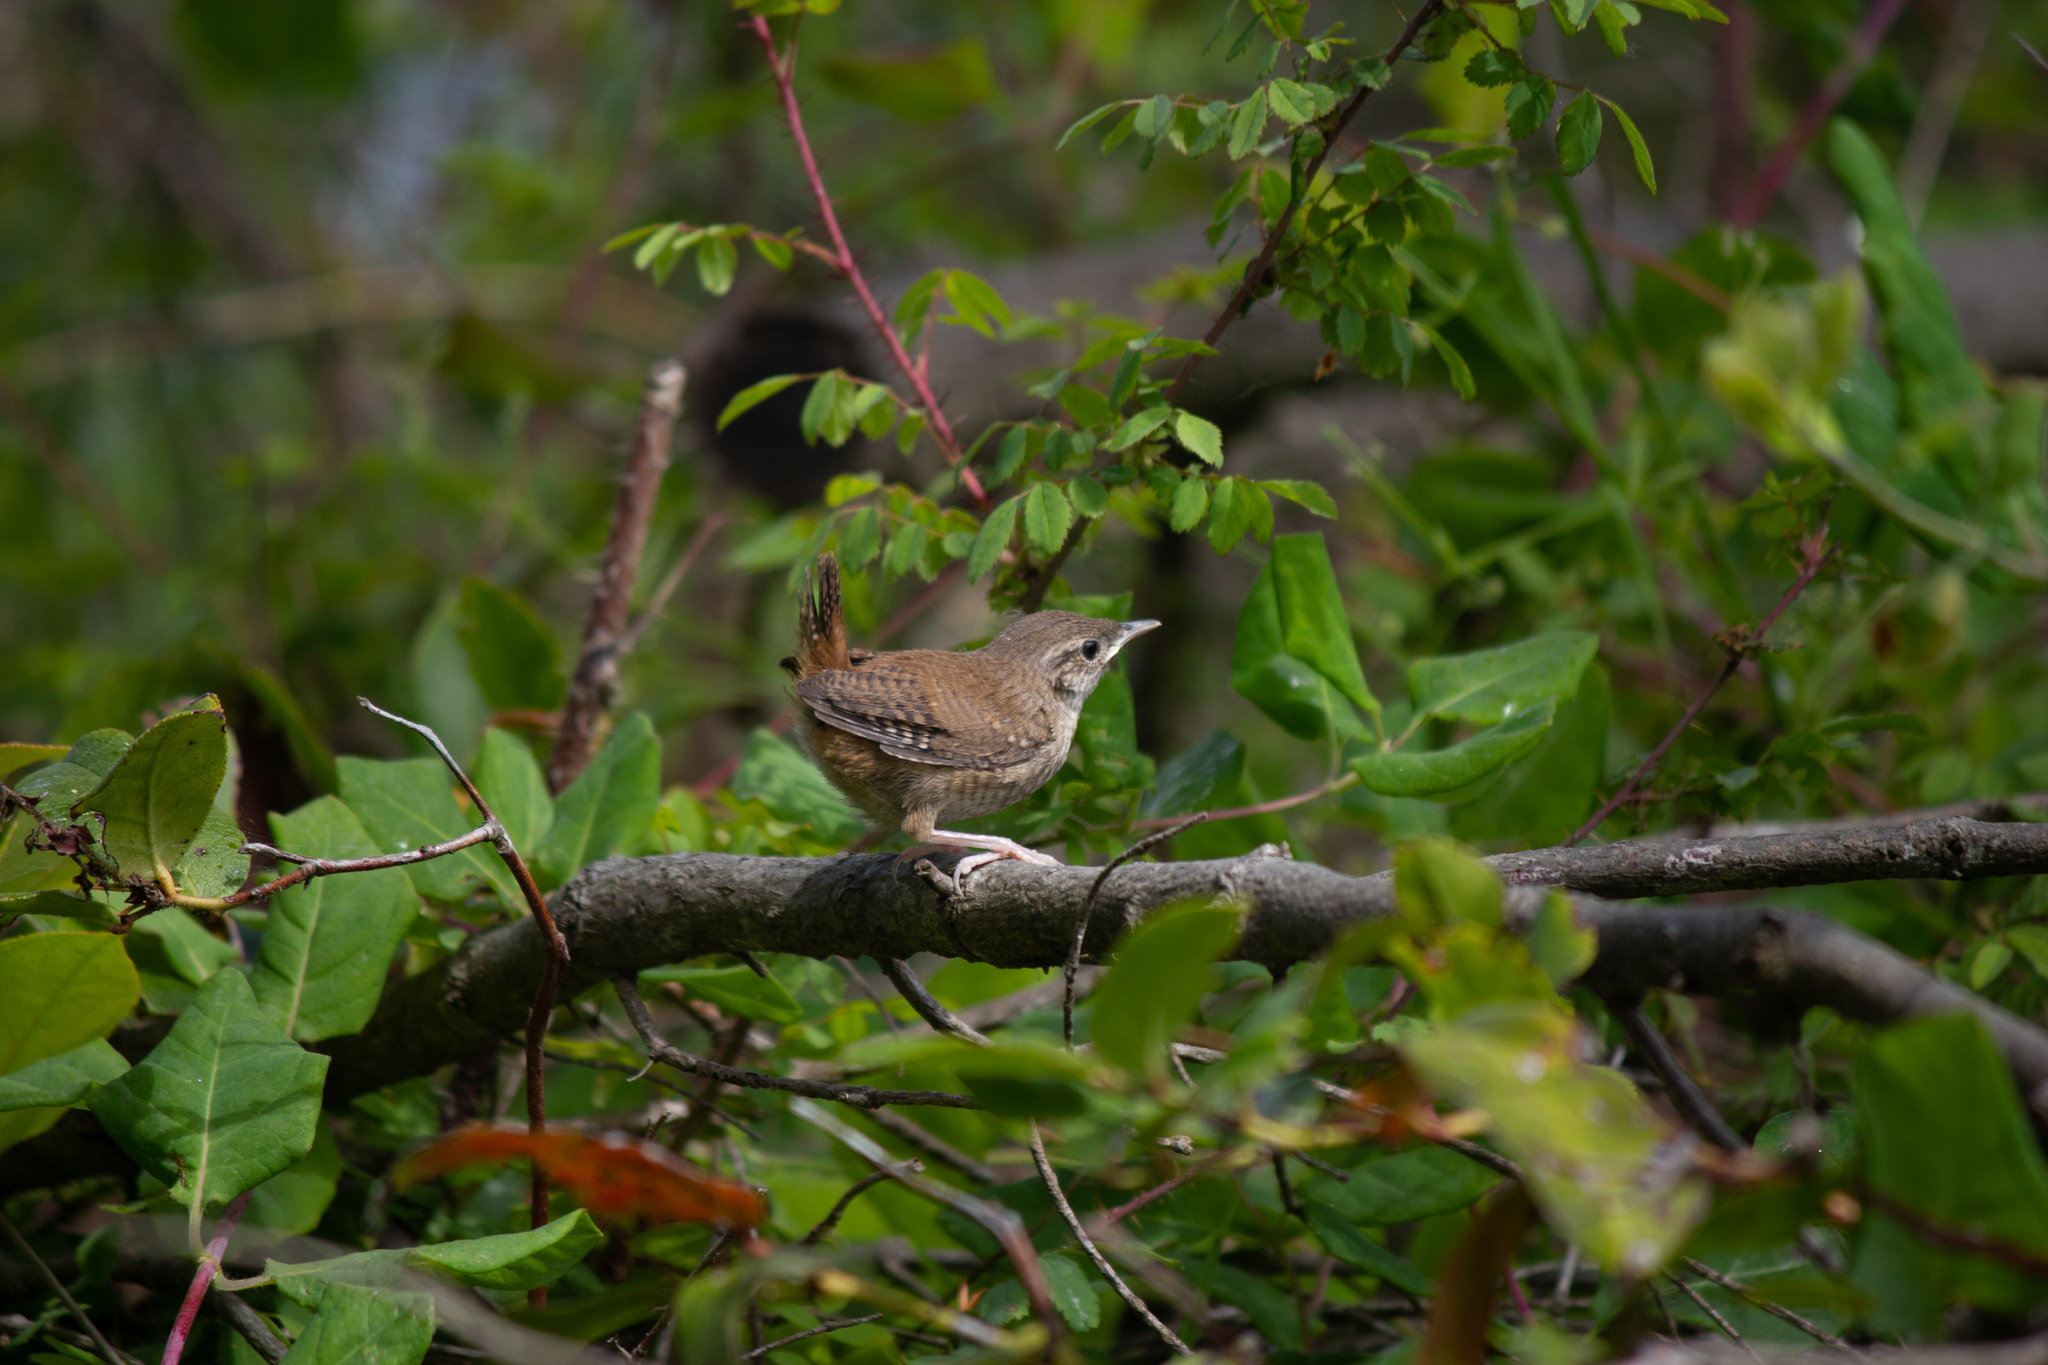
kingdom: Animalia
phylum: Chordata
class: Aves
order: Passeriformes
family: Troglodytidae
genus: Troglodytes
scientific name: Troglodytes aedon
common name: House wren
